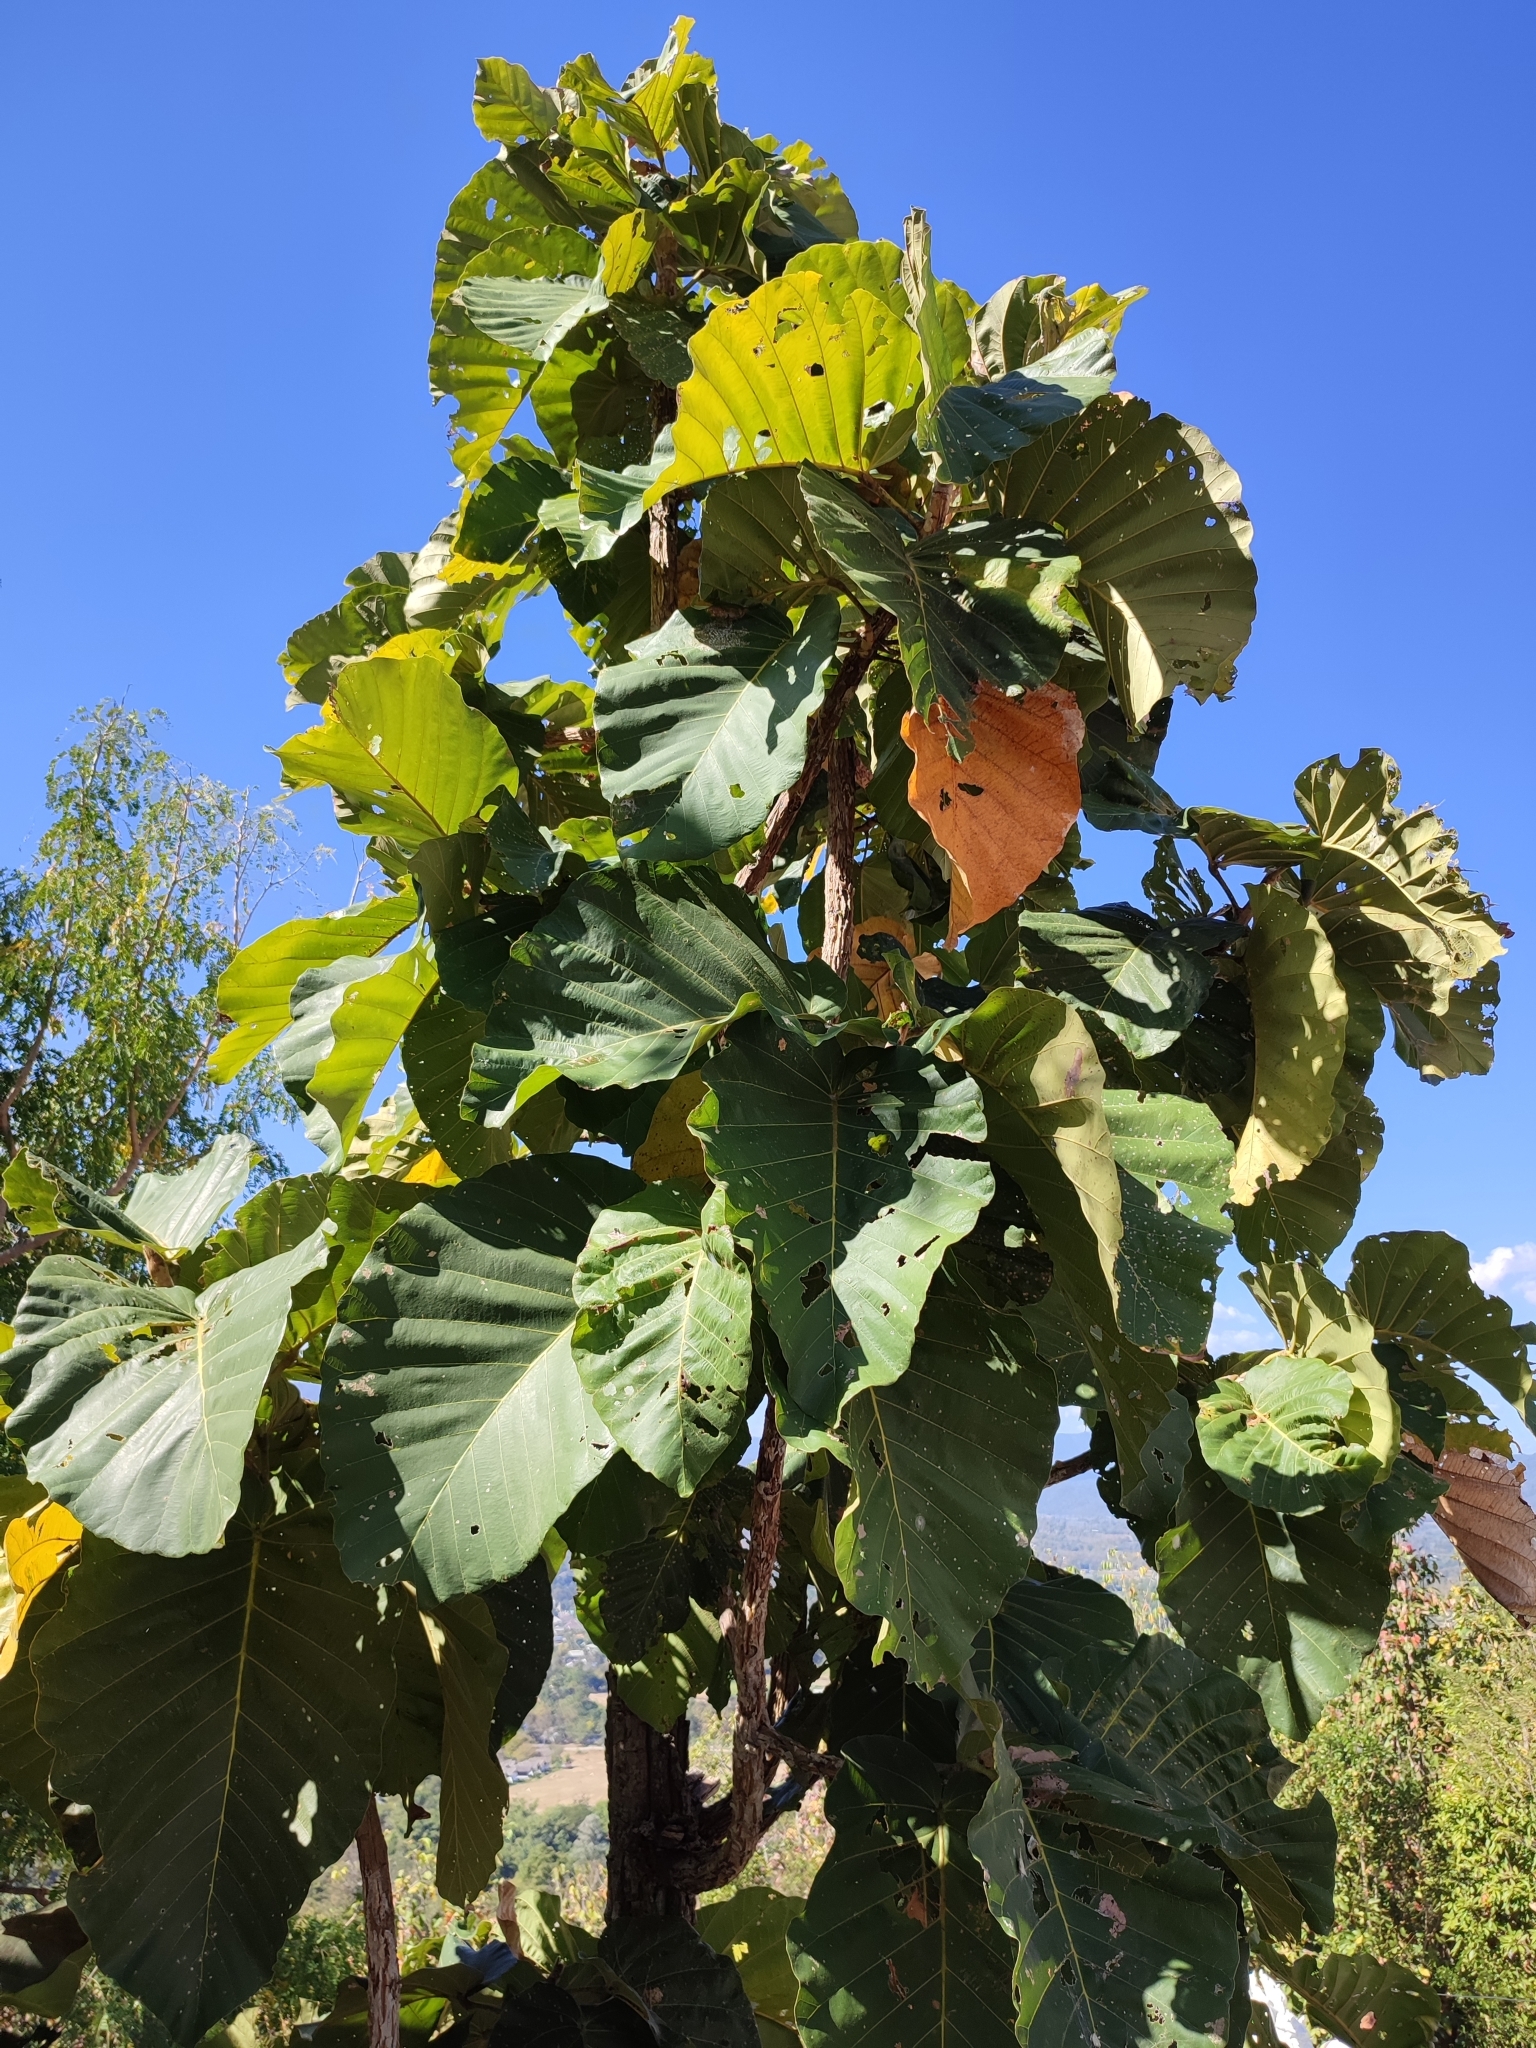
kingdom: Plantae
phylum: Tracheophyta
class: Magnoliopsida
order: Malvales
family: Dipterocarpaceae
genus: Dipterocarpus
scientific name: Dipterocarpus tuberculatus
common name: Eng gurjuntree
